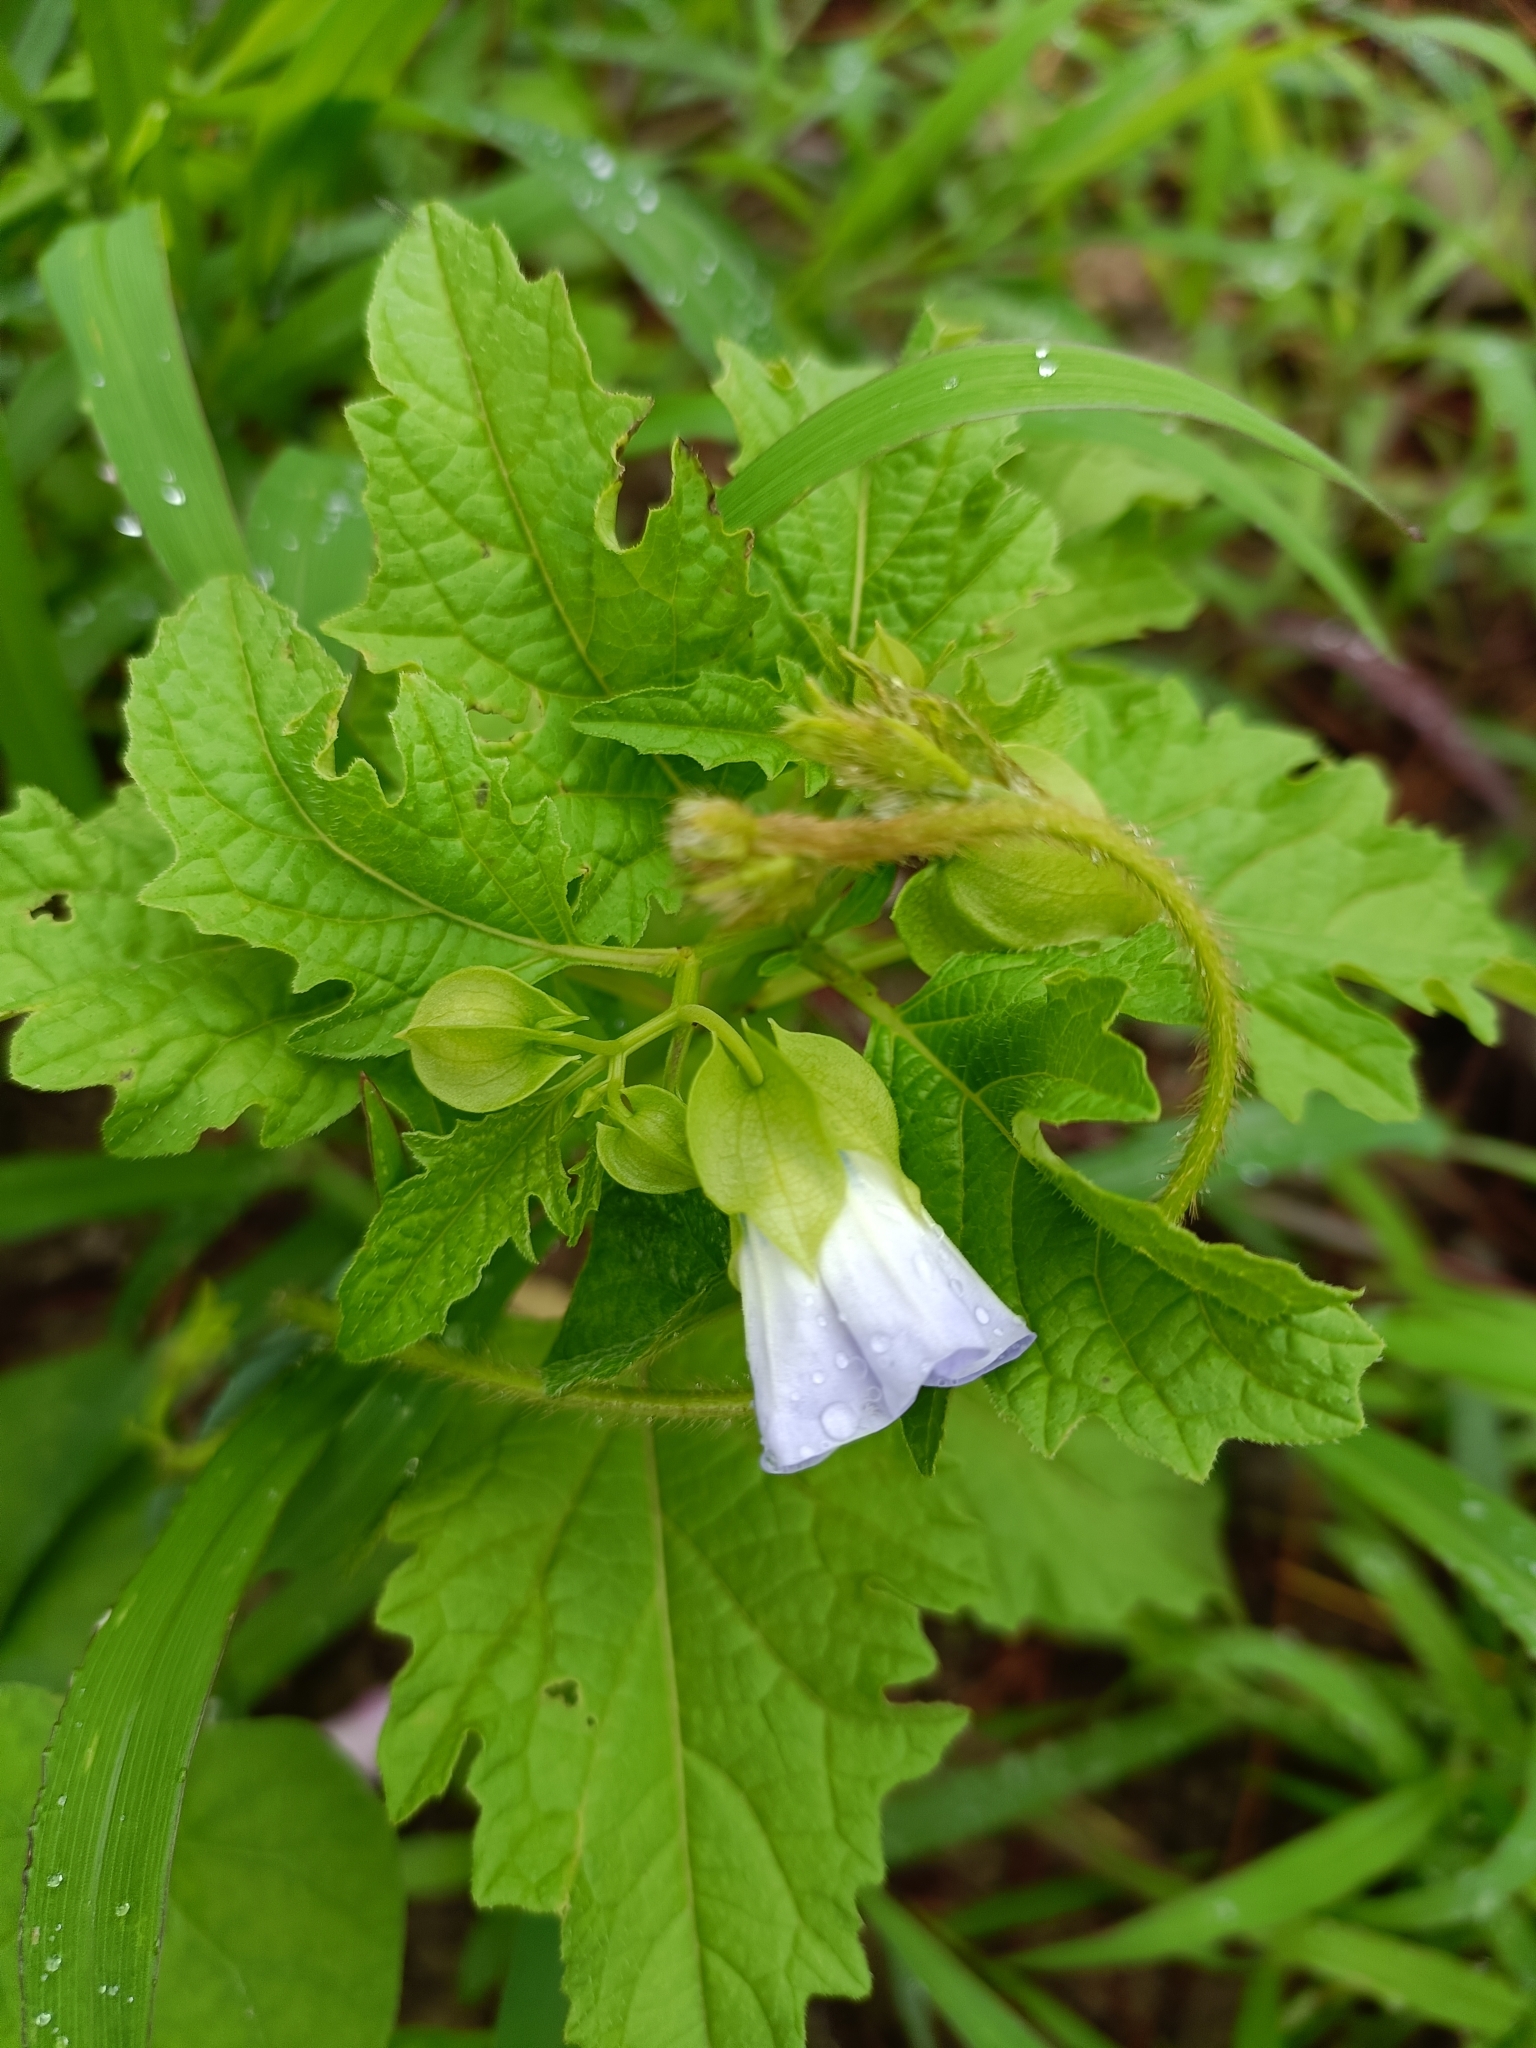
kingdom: Plantae
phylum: Tracheophyta
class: Magnoliopsida
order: Solanales
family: Solanaceae
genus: Nicandra
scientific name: Nicandra physalodes
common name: Apple-of-peru
